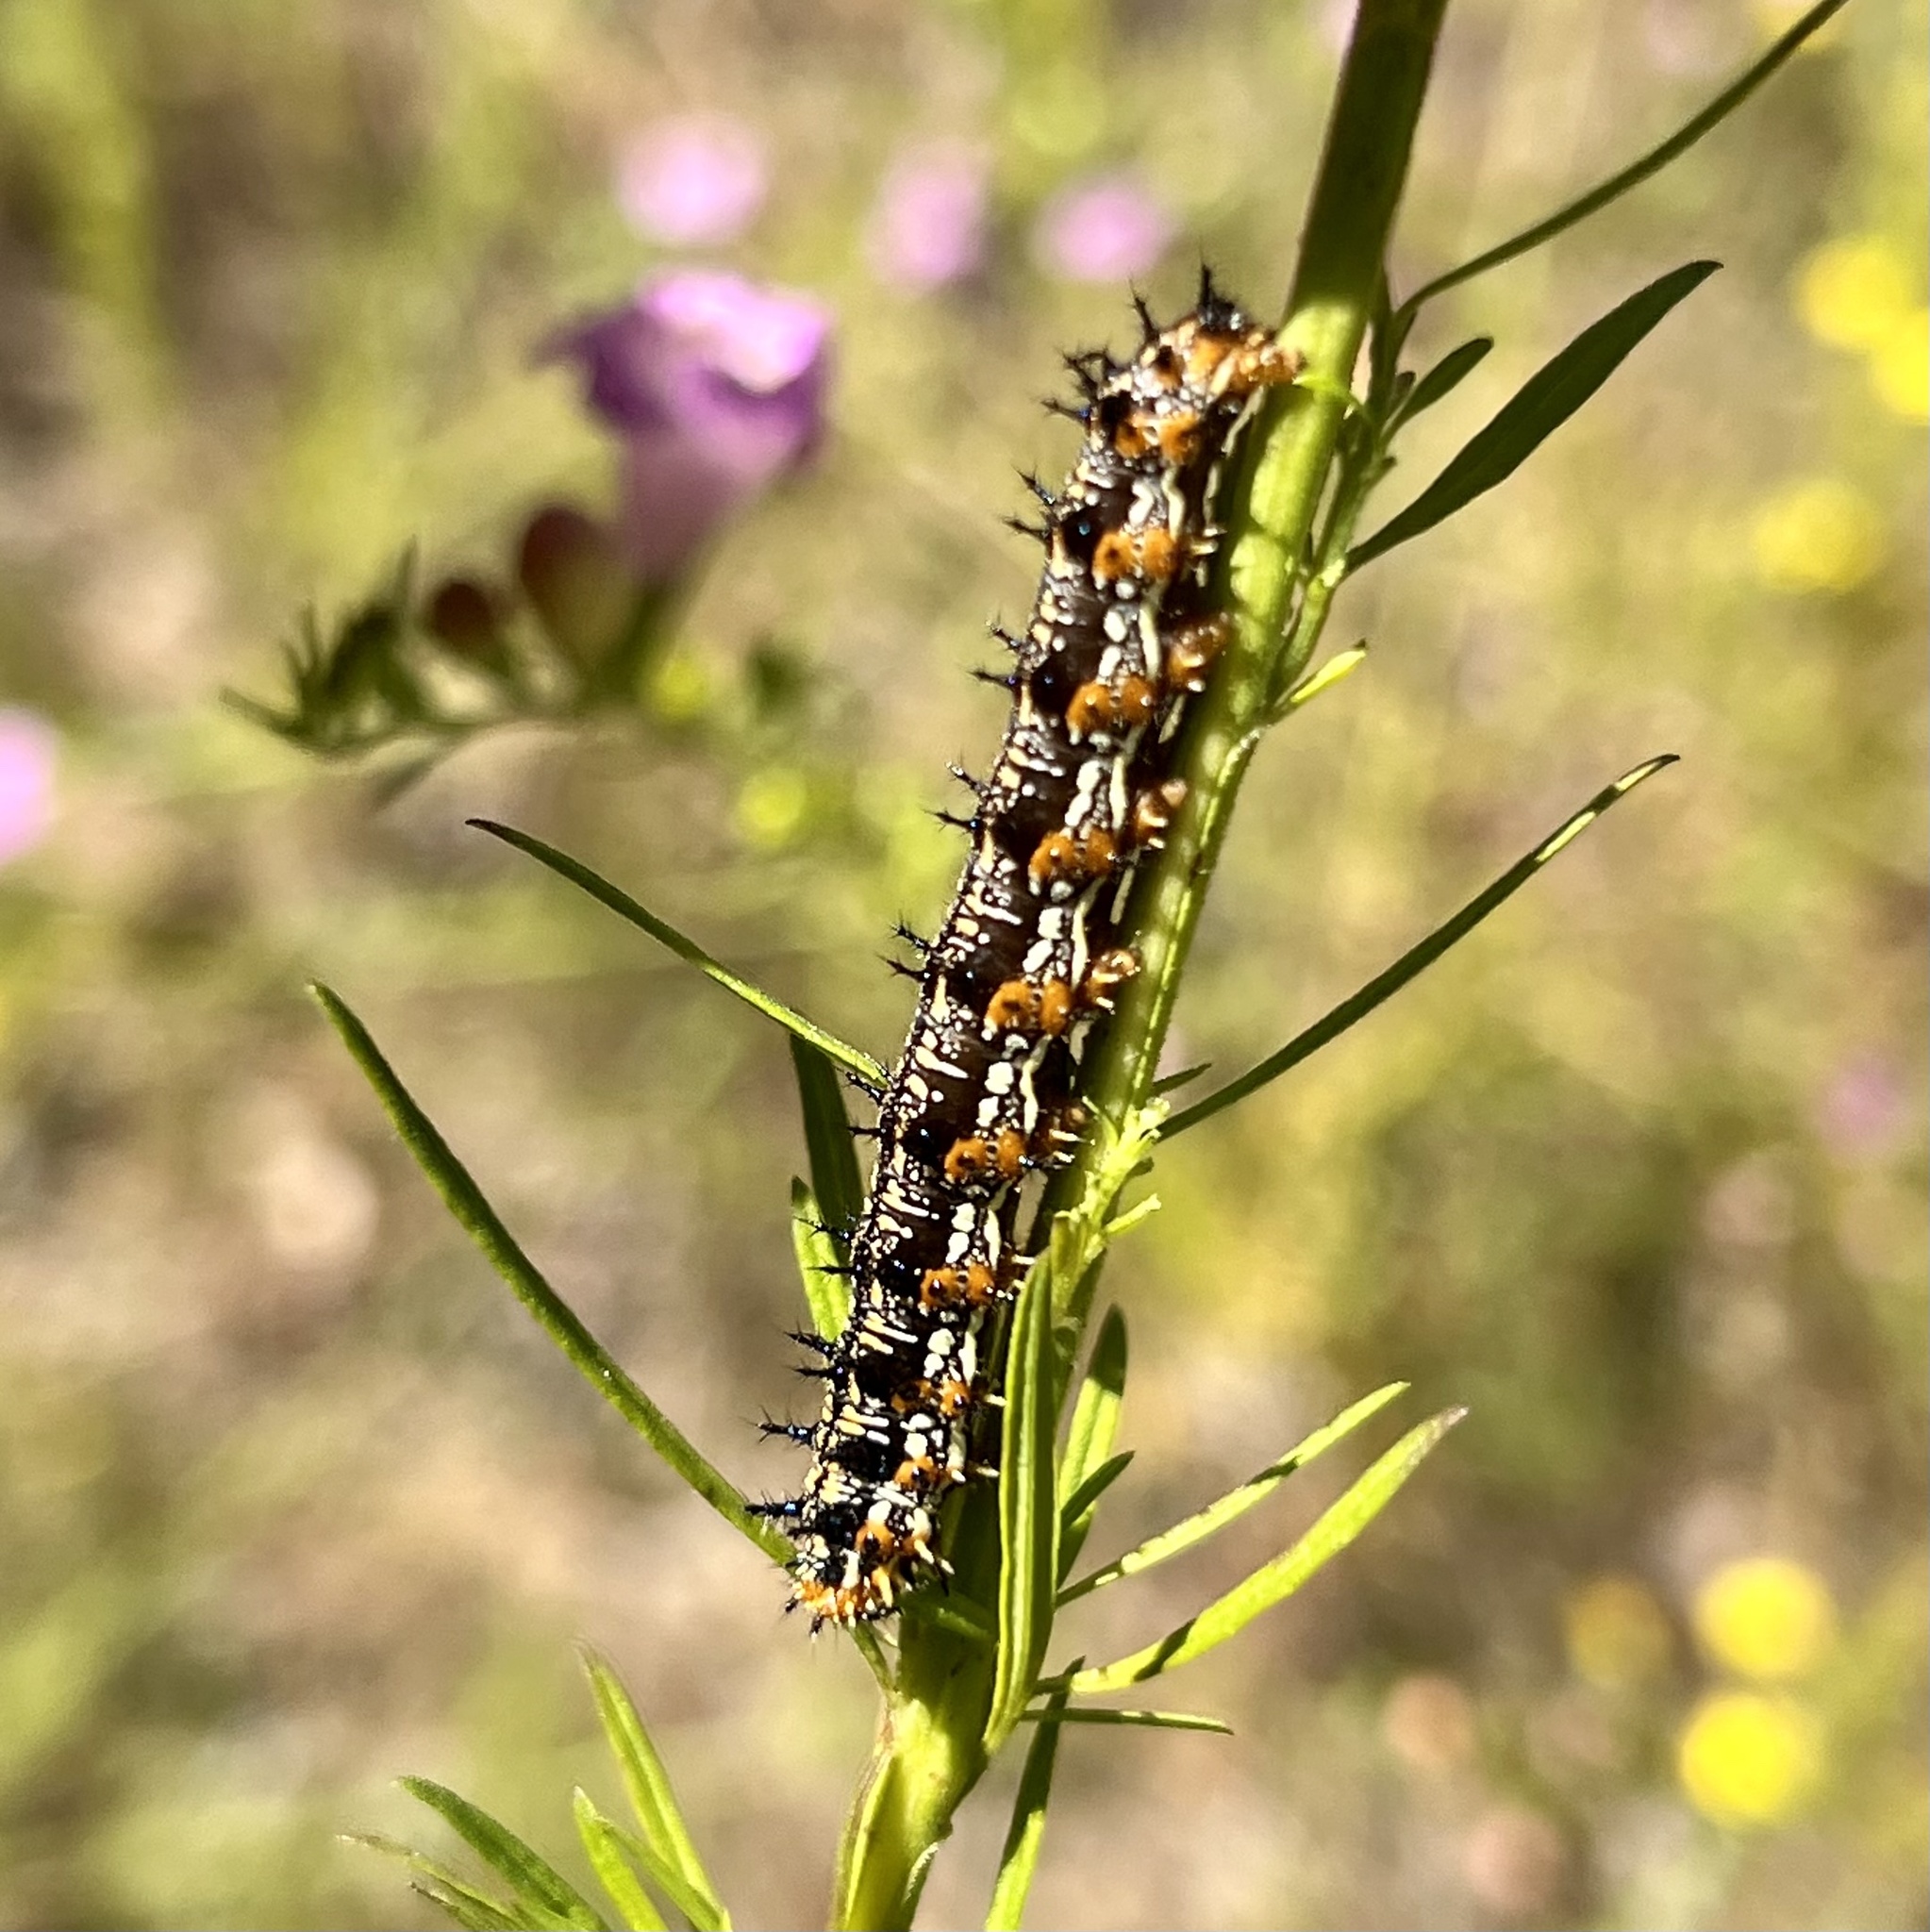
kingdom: Animalia
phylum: Arthropoda
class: Insecta
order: Lepidoptera
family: Nymphalidae
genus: Junonia
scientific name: Junonia coenia
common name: Common buckeye
